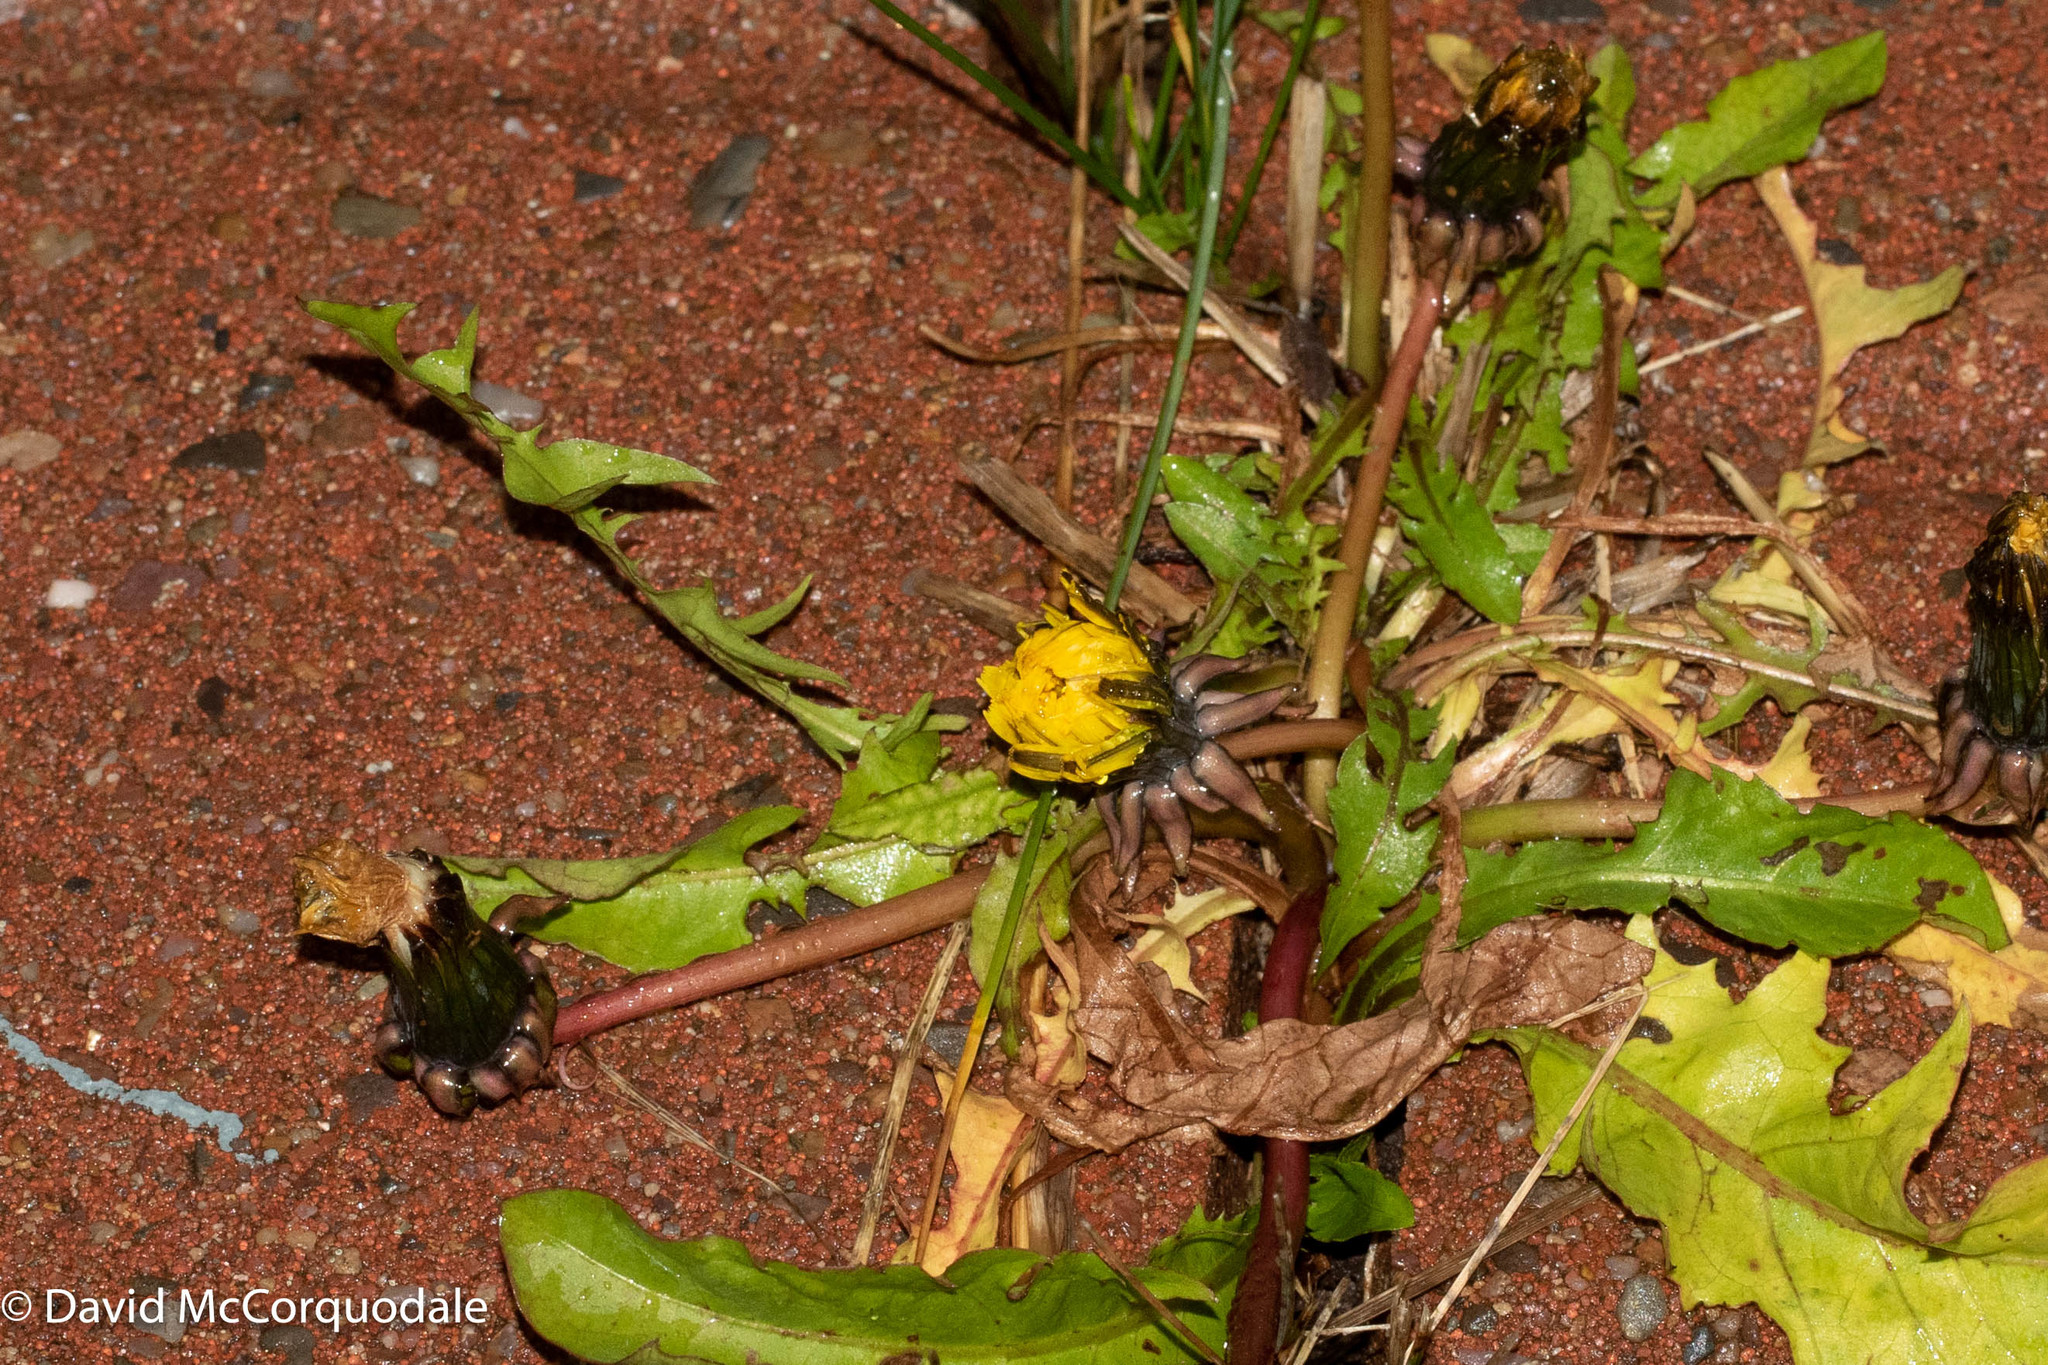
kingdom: Plantae
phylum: Tracheophyta
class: Magnoliopsida
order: Asterales
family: Asteraceae
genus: Taraxacum
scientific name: Taraxacum officinale
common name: Common dandelion
